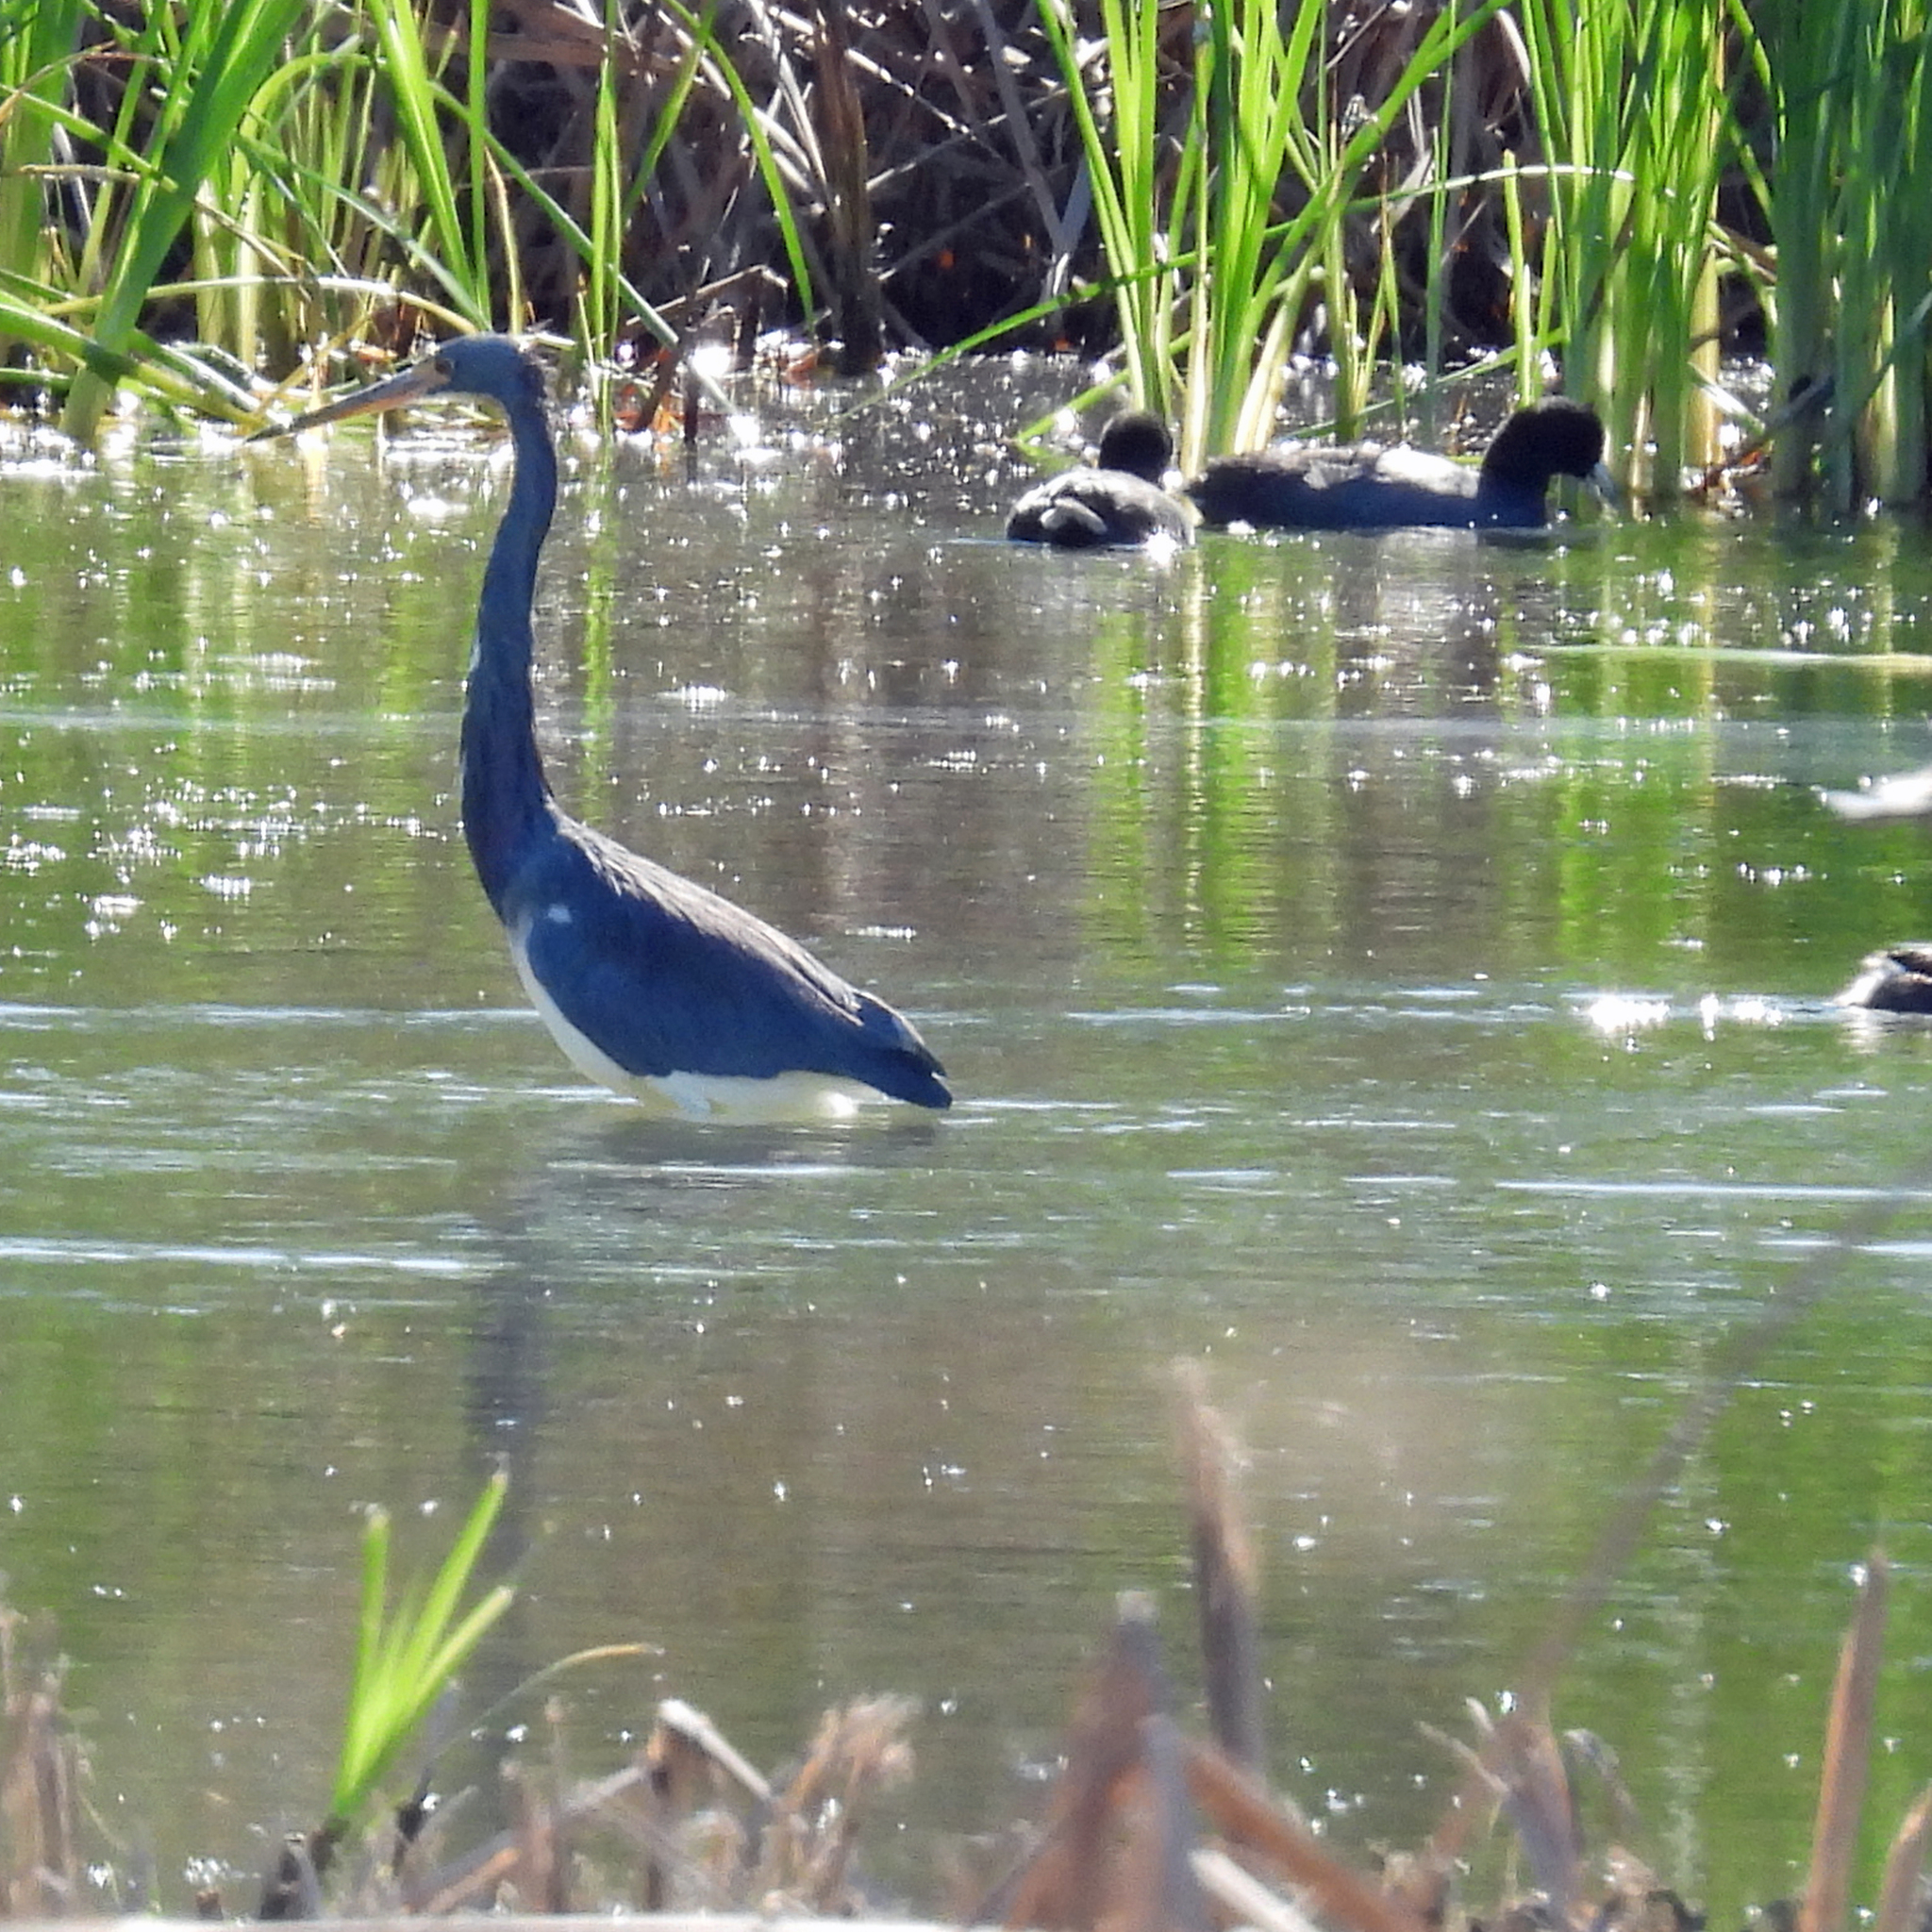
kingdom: Animalia
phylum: Chordata
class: Aves
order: Pelecaniformes
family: Ardeidae
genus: Egretta
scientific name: Egretta tricolor
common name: Tricolored heron
